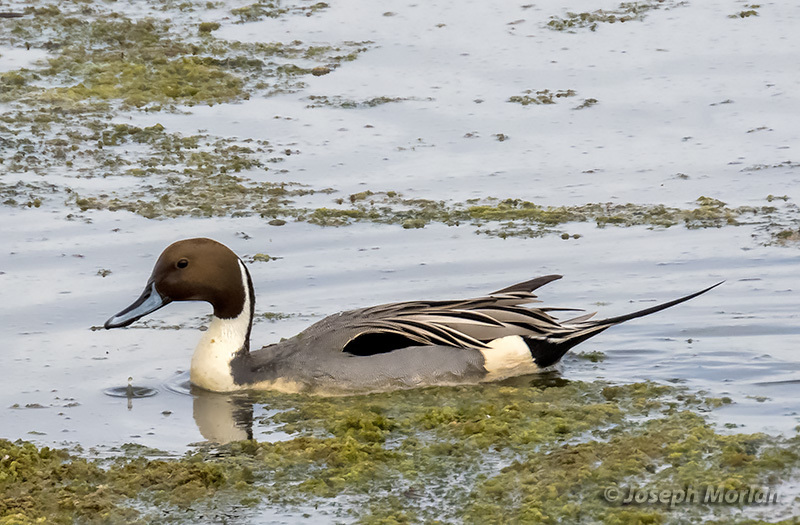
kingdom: Animalia
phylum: Chordata
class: Aves
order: Anseriformes
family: Anatidae
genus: Anas
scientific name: Anas acuta
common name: Northern pintail
